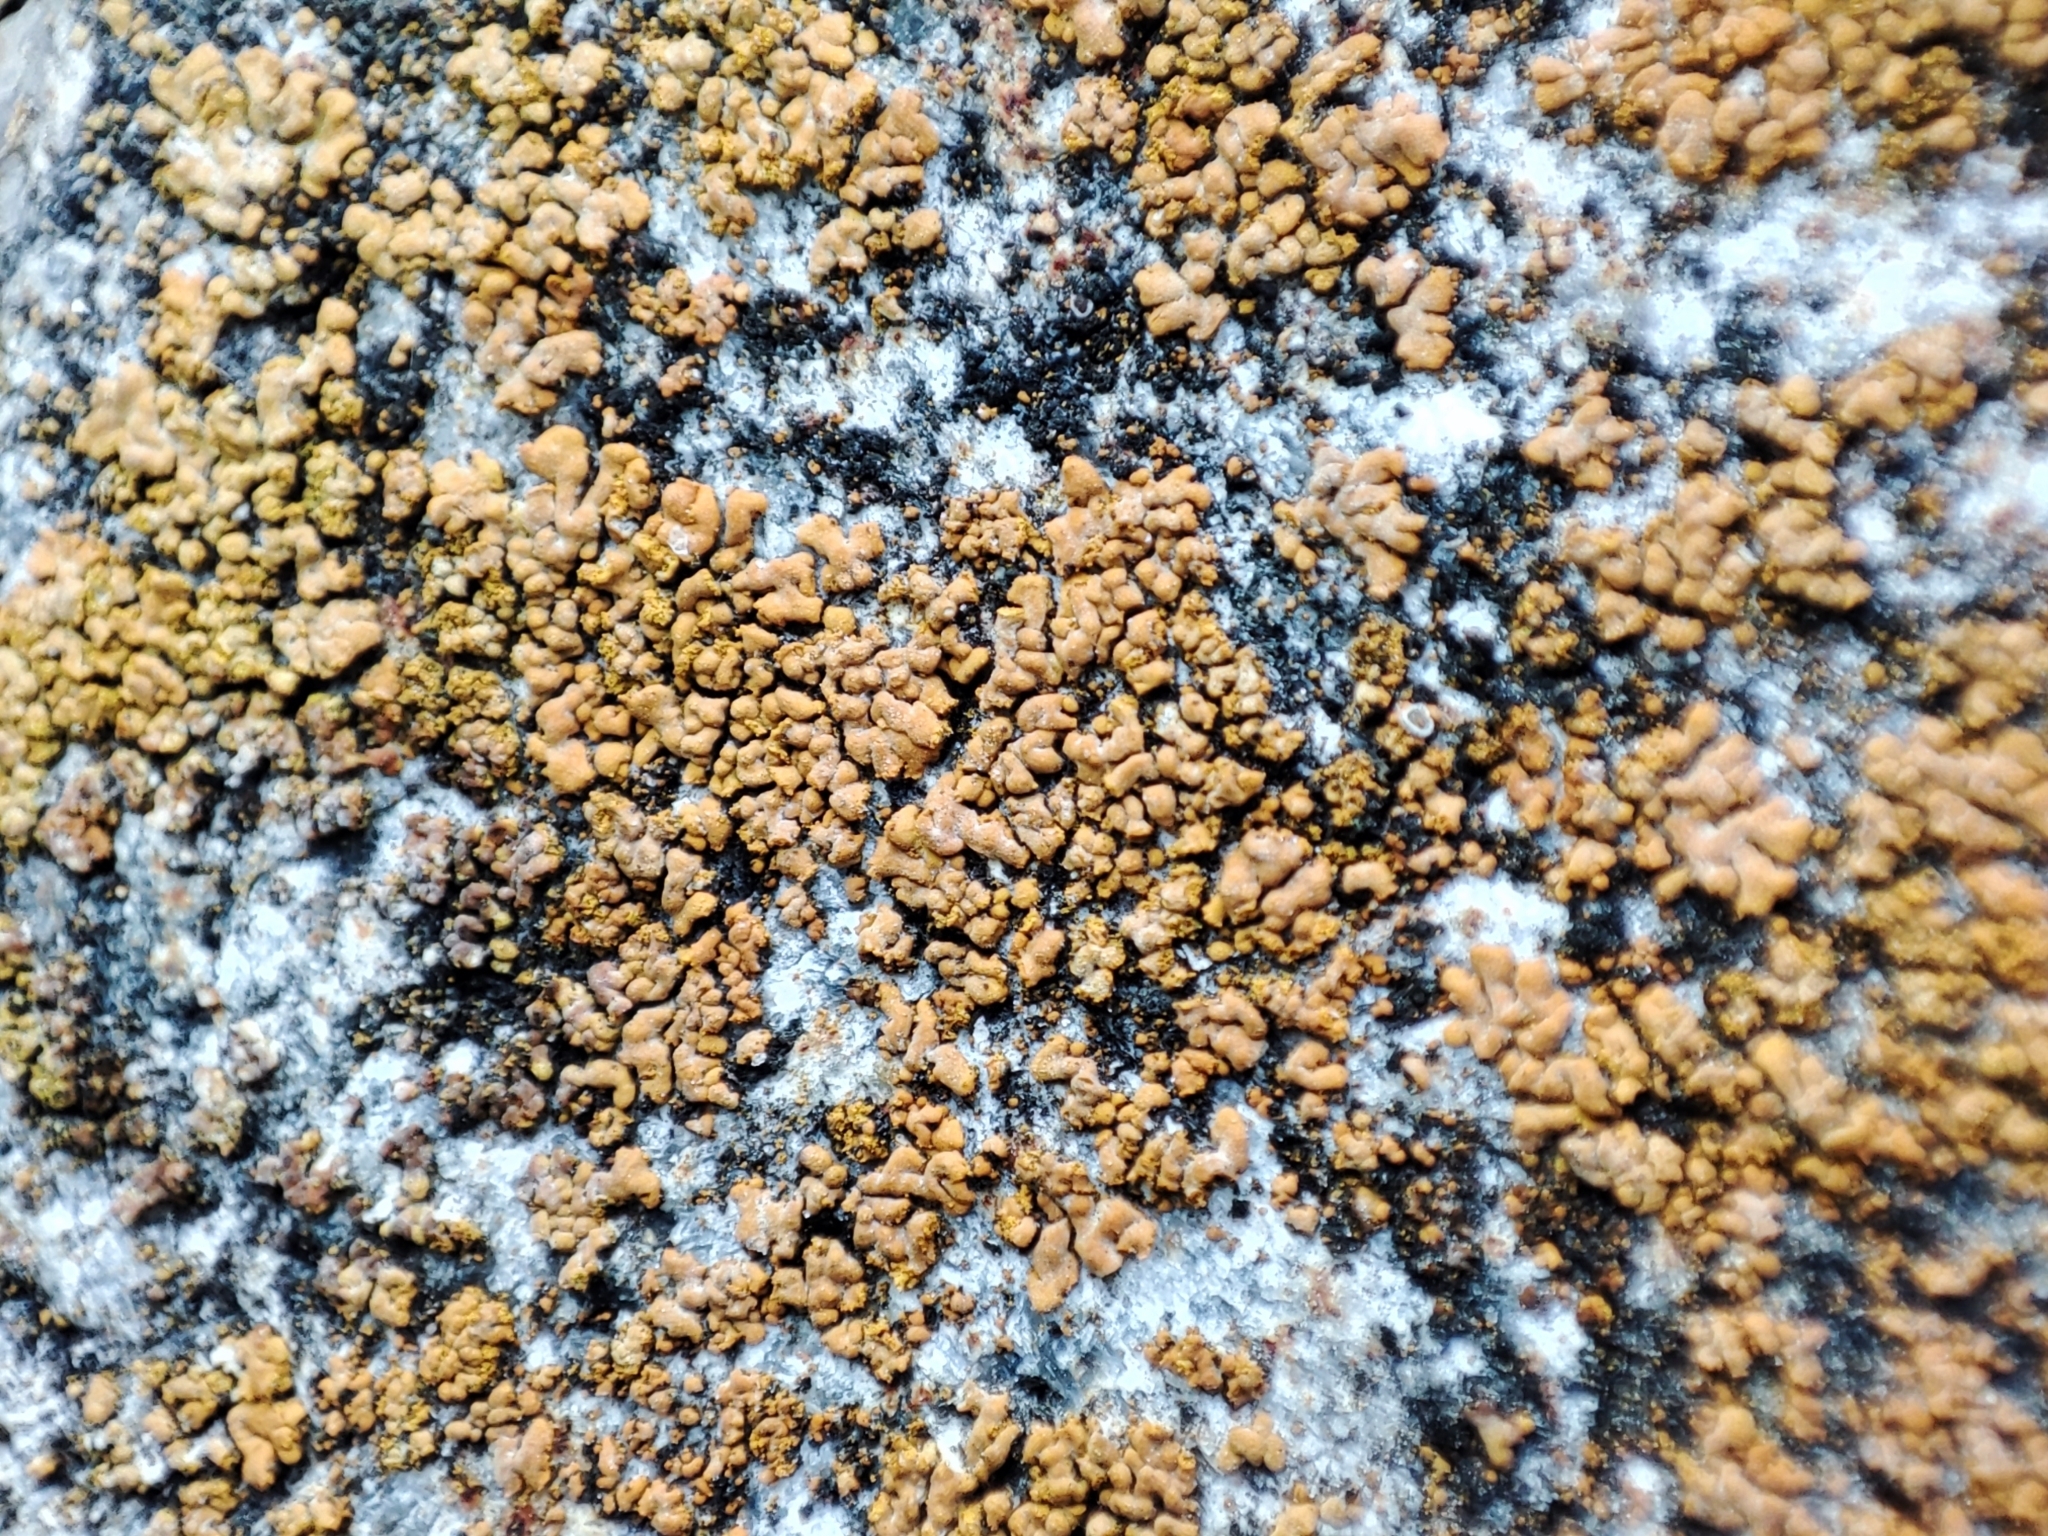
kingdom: Fungi
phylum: Ascomycota
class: Lecanoromycetes
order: Teloschistales
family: Teloschistaceae
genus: Calogaya
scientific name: Calogaya decipiens
